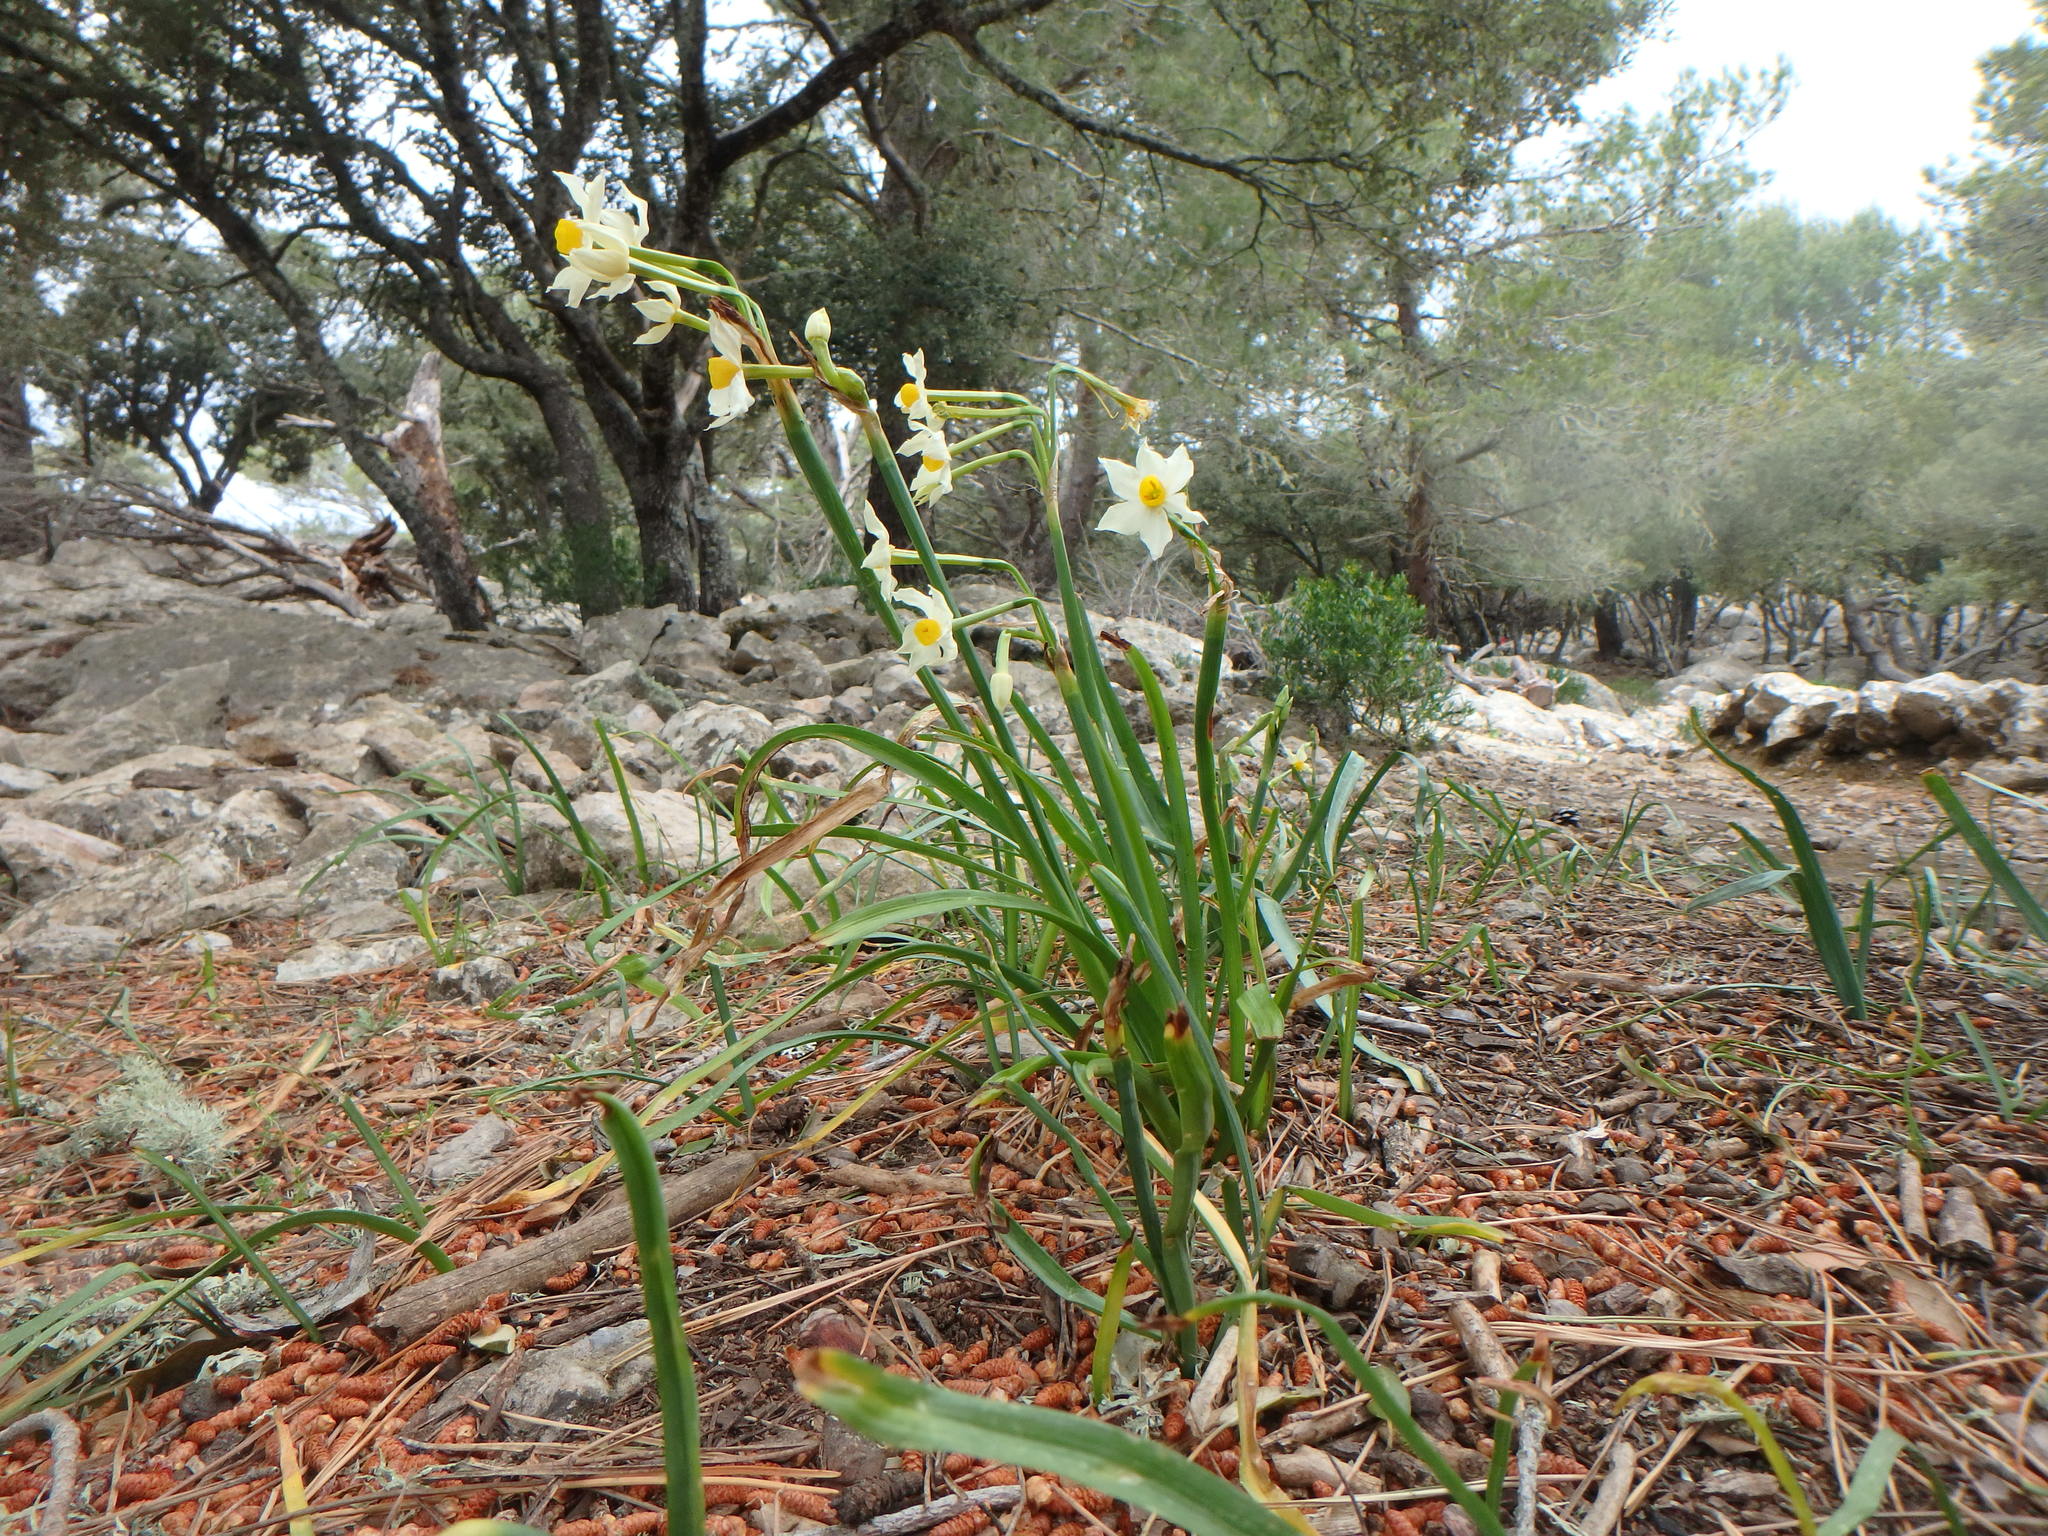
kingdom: Plantae
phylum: Tracheophyta
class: Liliopsida
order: Asparagales
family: Amaryllidaceae
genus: Narcissus
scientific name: Narcissus tazetta
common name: Bunch-flowered daffodil
